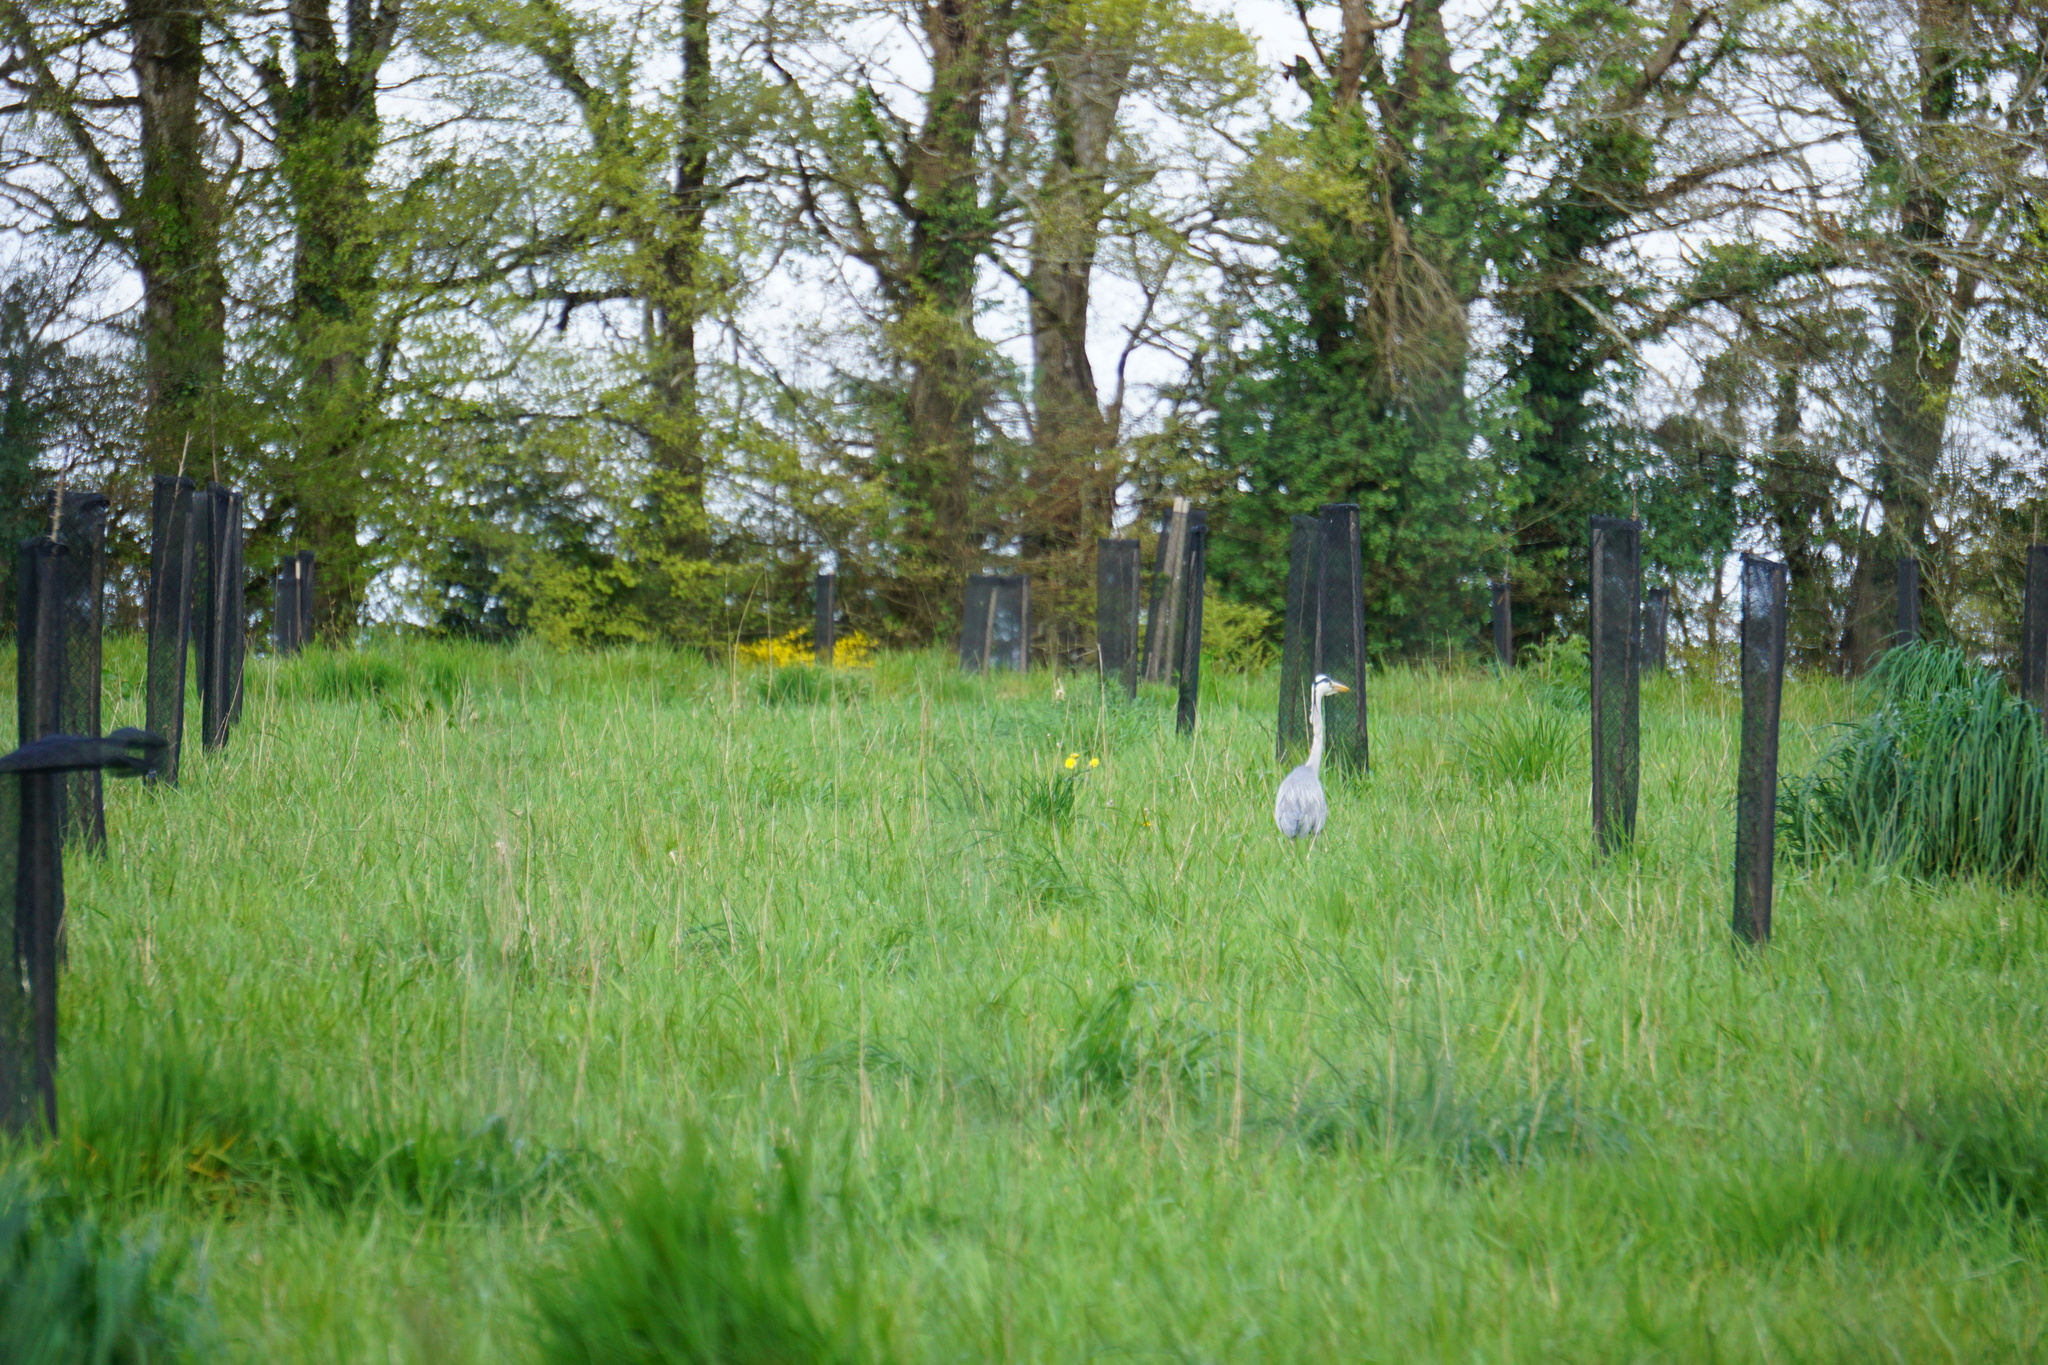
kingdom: Animalia
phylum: Chordata
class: Aves
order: Pelecaniformes
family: Ardeidae
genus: Ardea
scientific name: Ardea cinerea
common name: Grey heron
